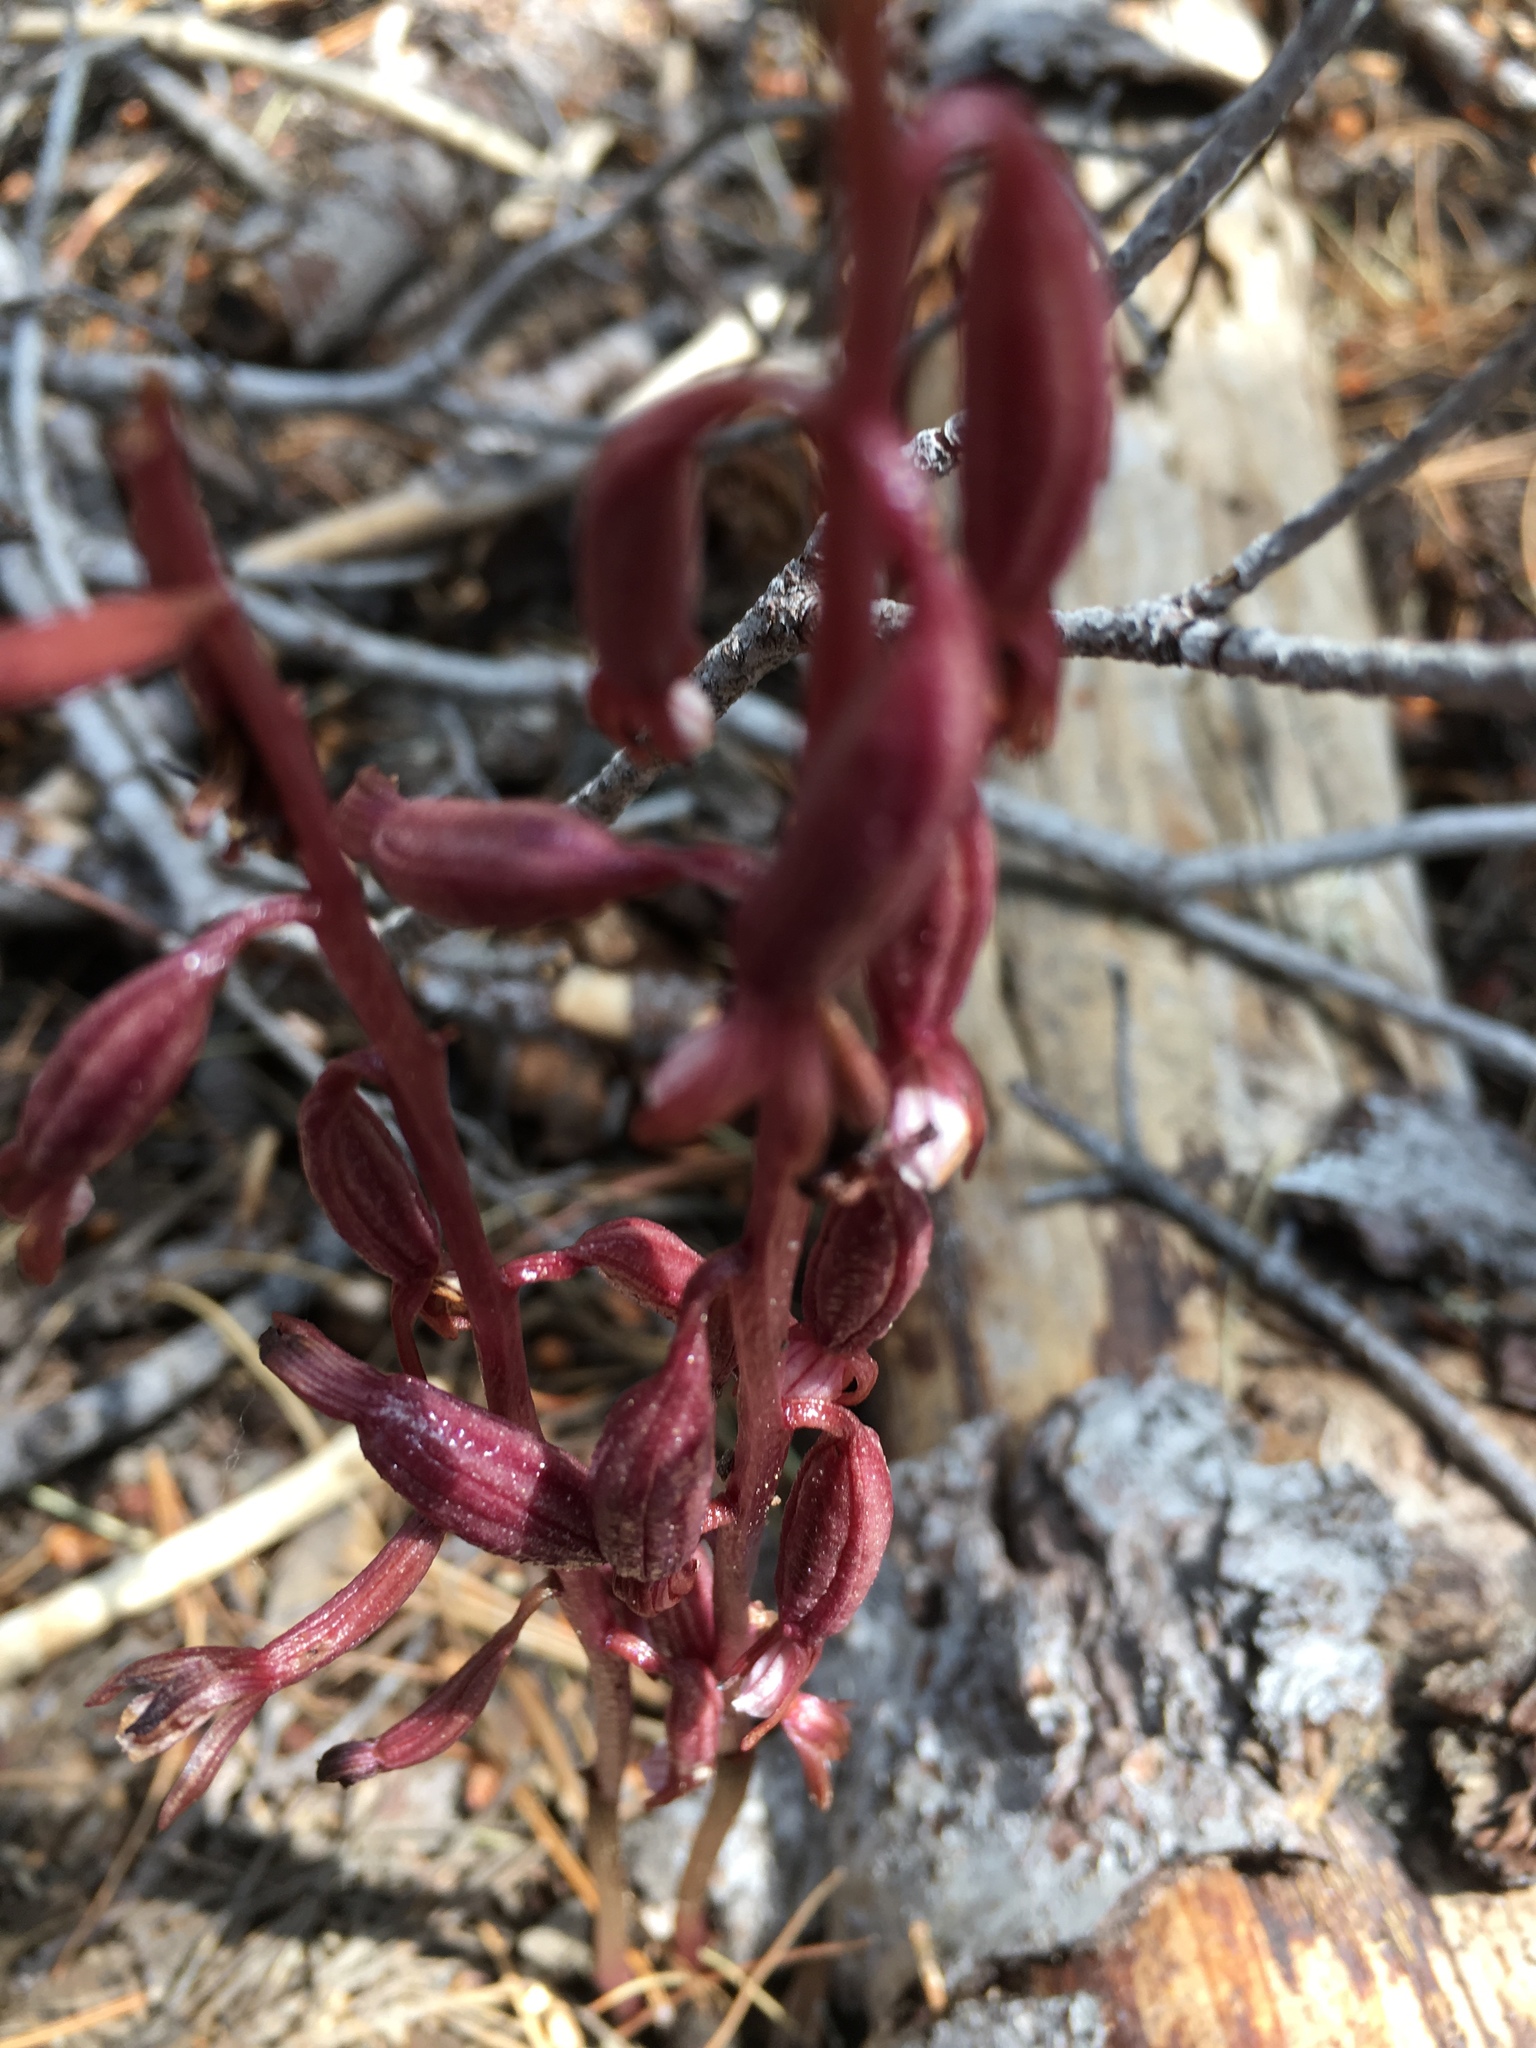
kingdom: Plantae
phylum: Tracheophyta
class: Liliopsida
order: Asparagales
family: Orchidaceae
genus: Corallorhiza
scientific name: Corallorhiza maculata
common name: Spotted coralroot
